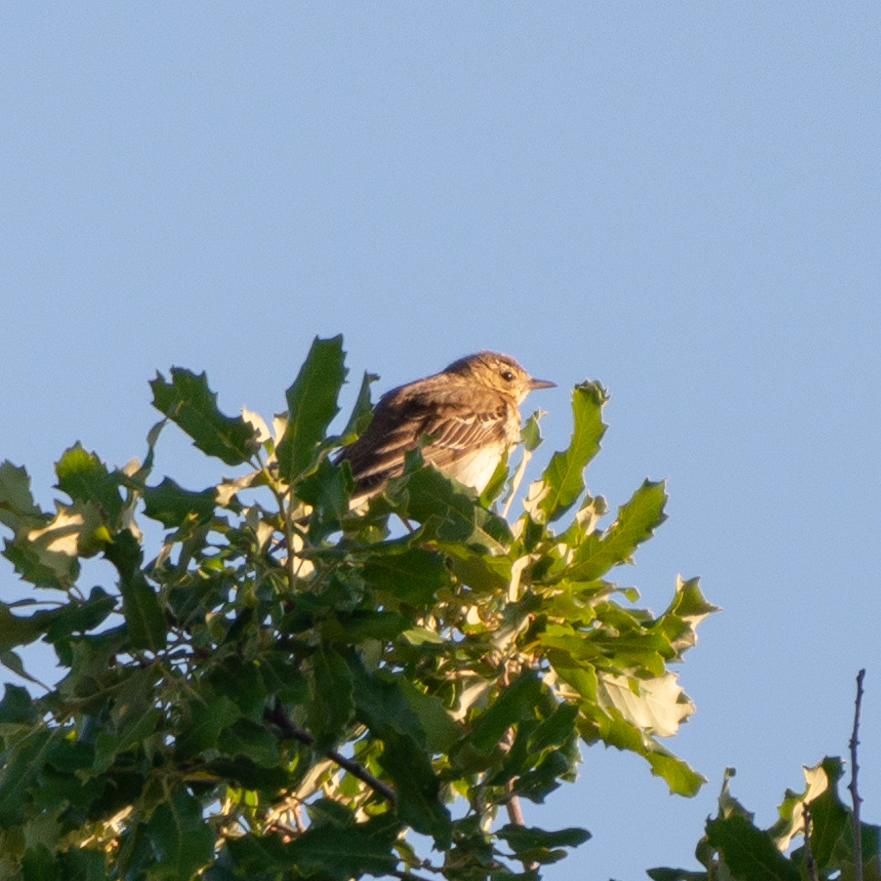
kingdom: Animalia
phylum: Chordata
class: Aves
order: Passeriformes
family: Motacillidae
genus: Anthus
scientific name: Anthus trivialis
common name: Tree pipit
